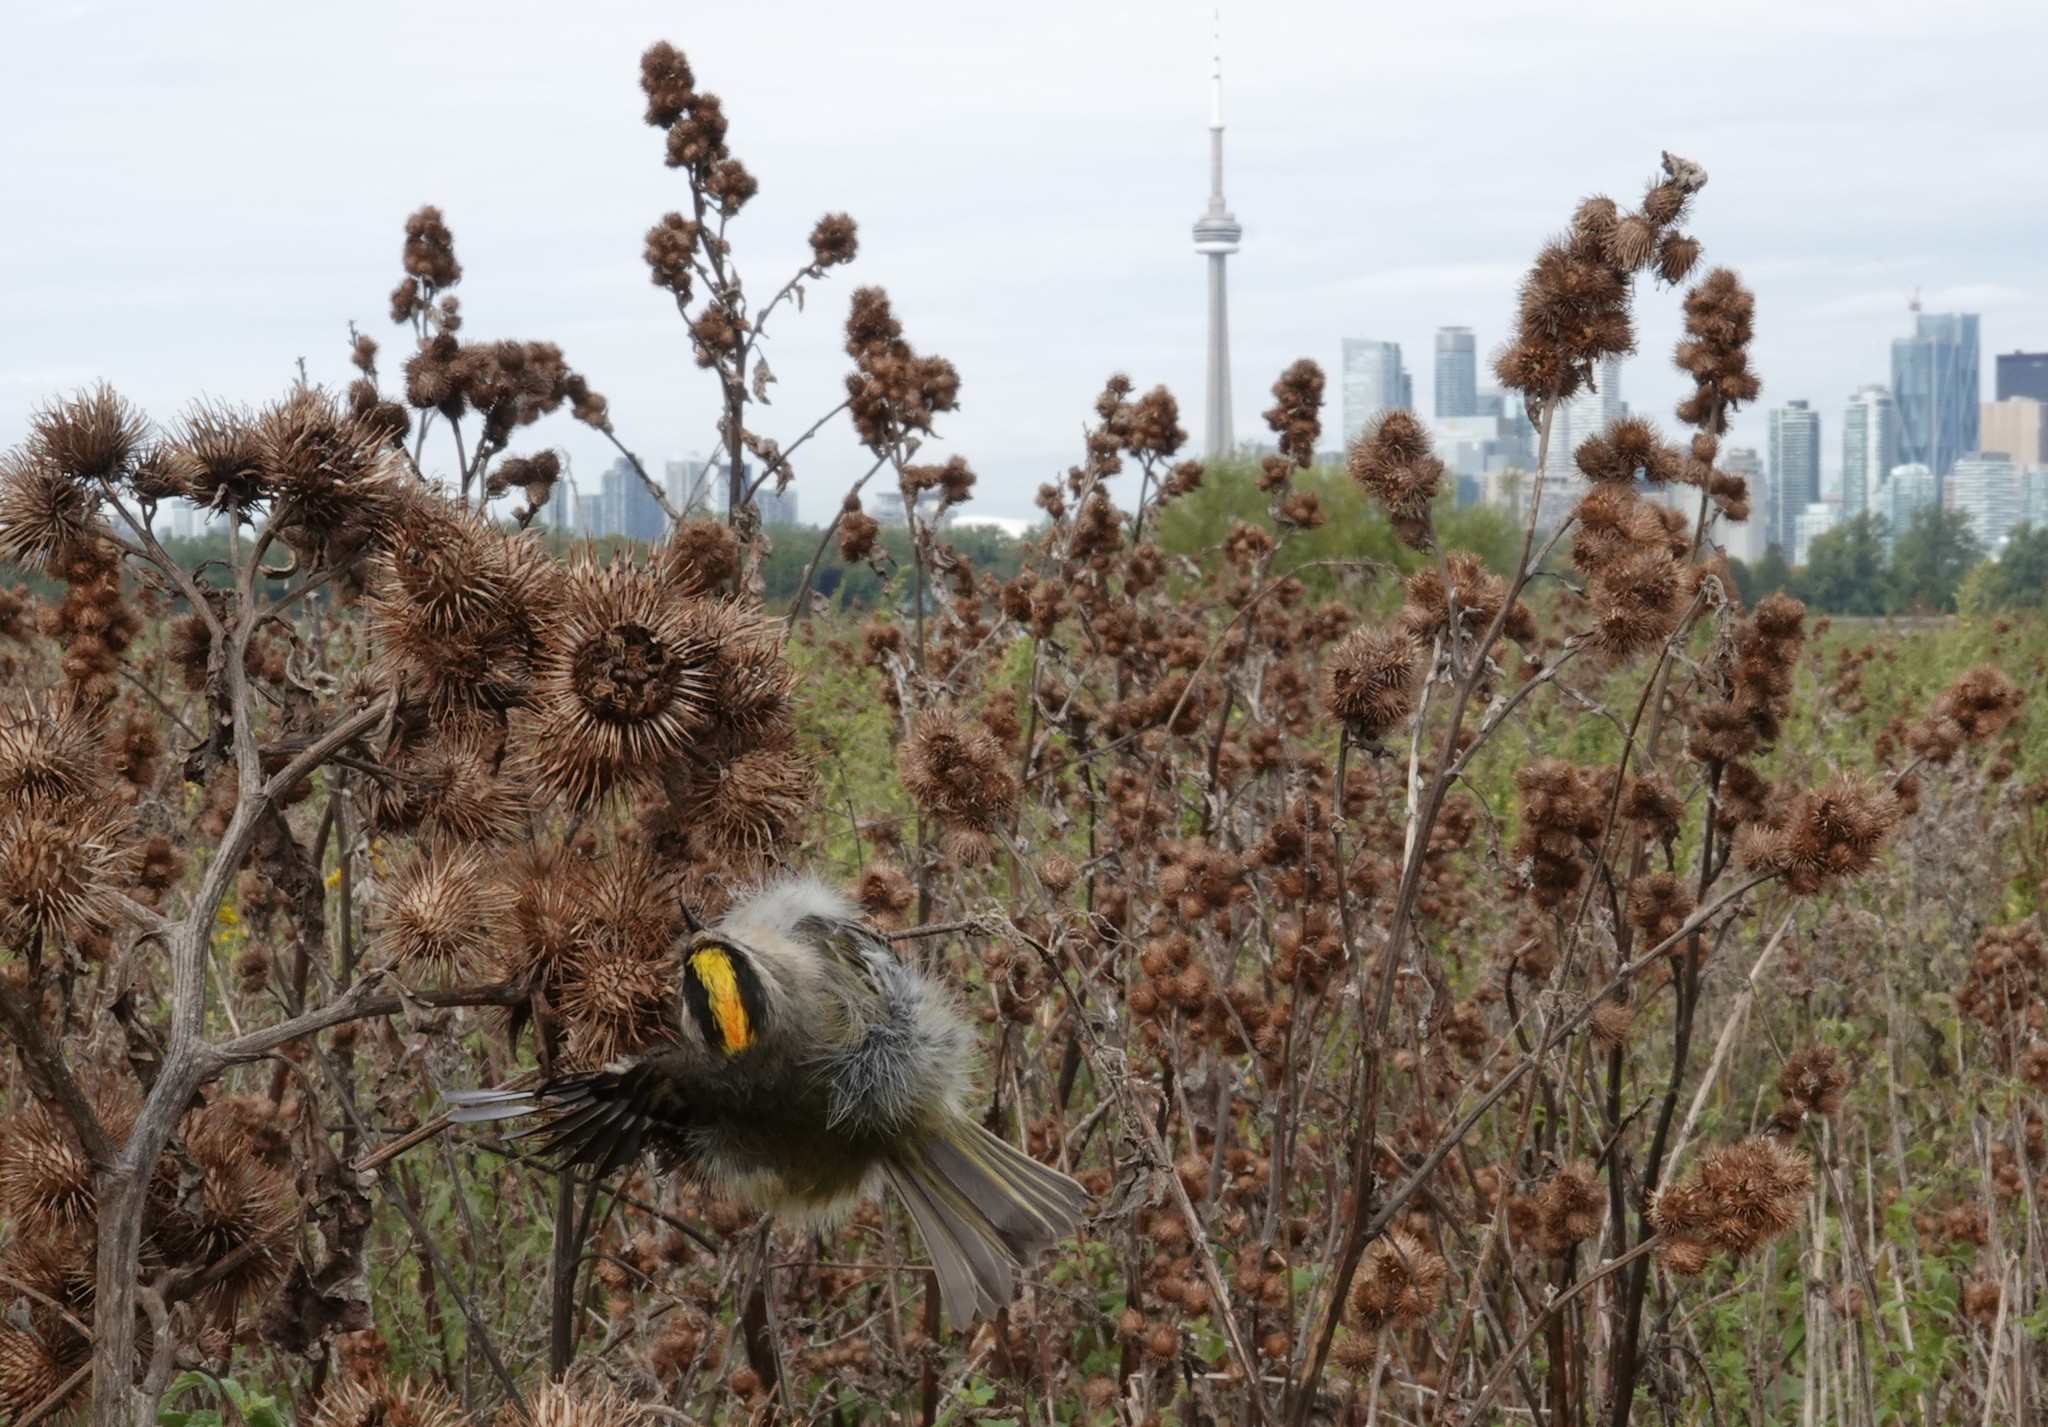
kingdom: Animalia
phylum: Chordata
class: Aves
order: Passeriformes
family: Regulidae
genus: Regulus
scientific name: Regulus satrapa
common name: Golden-crowned kinglet
